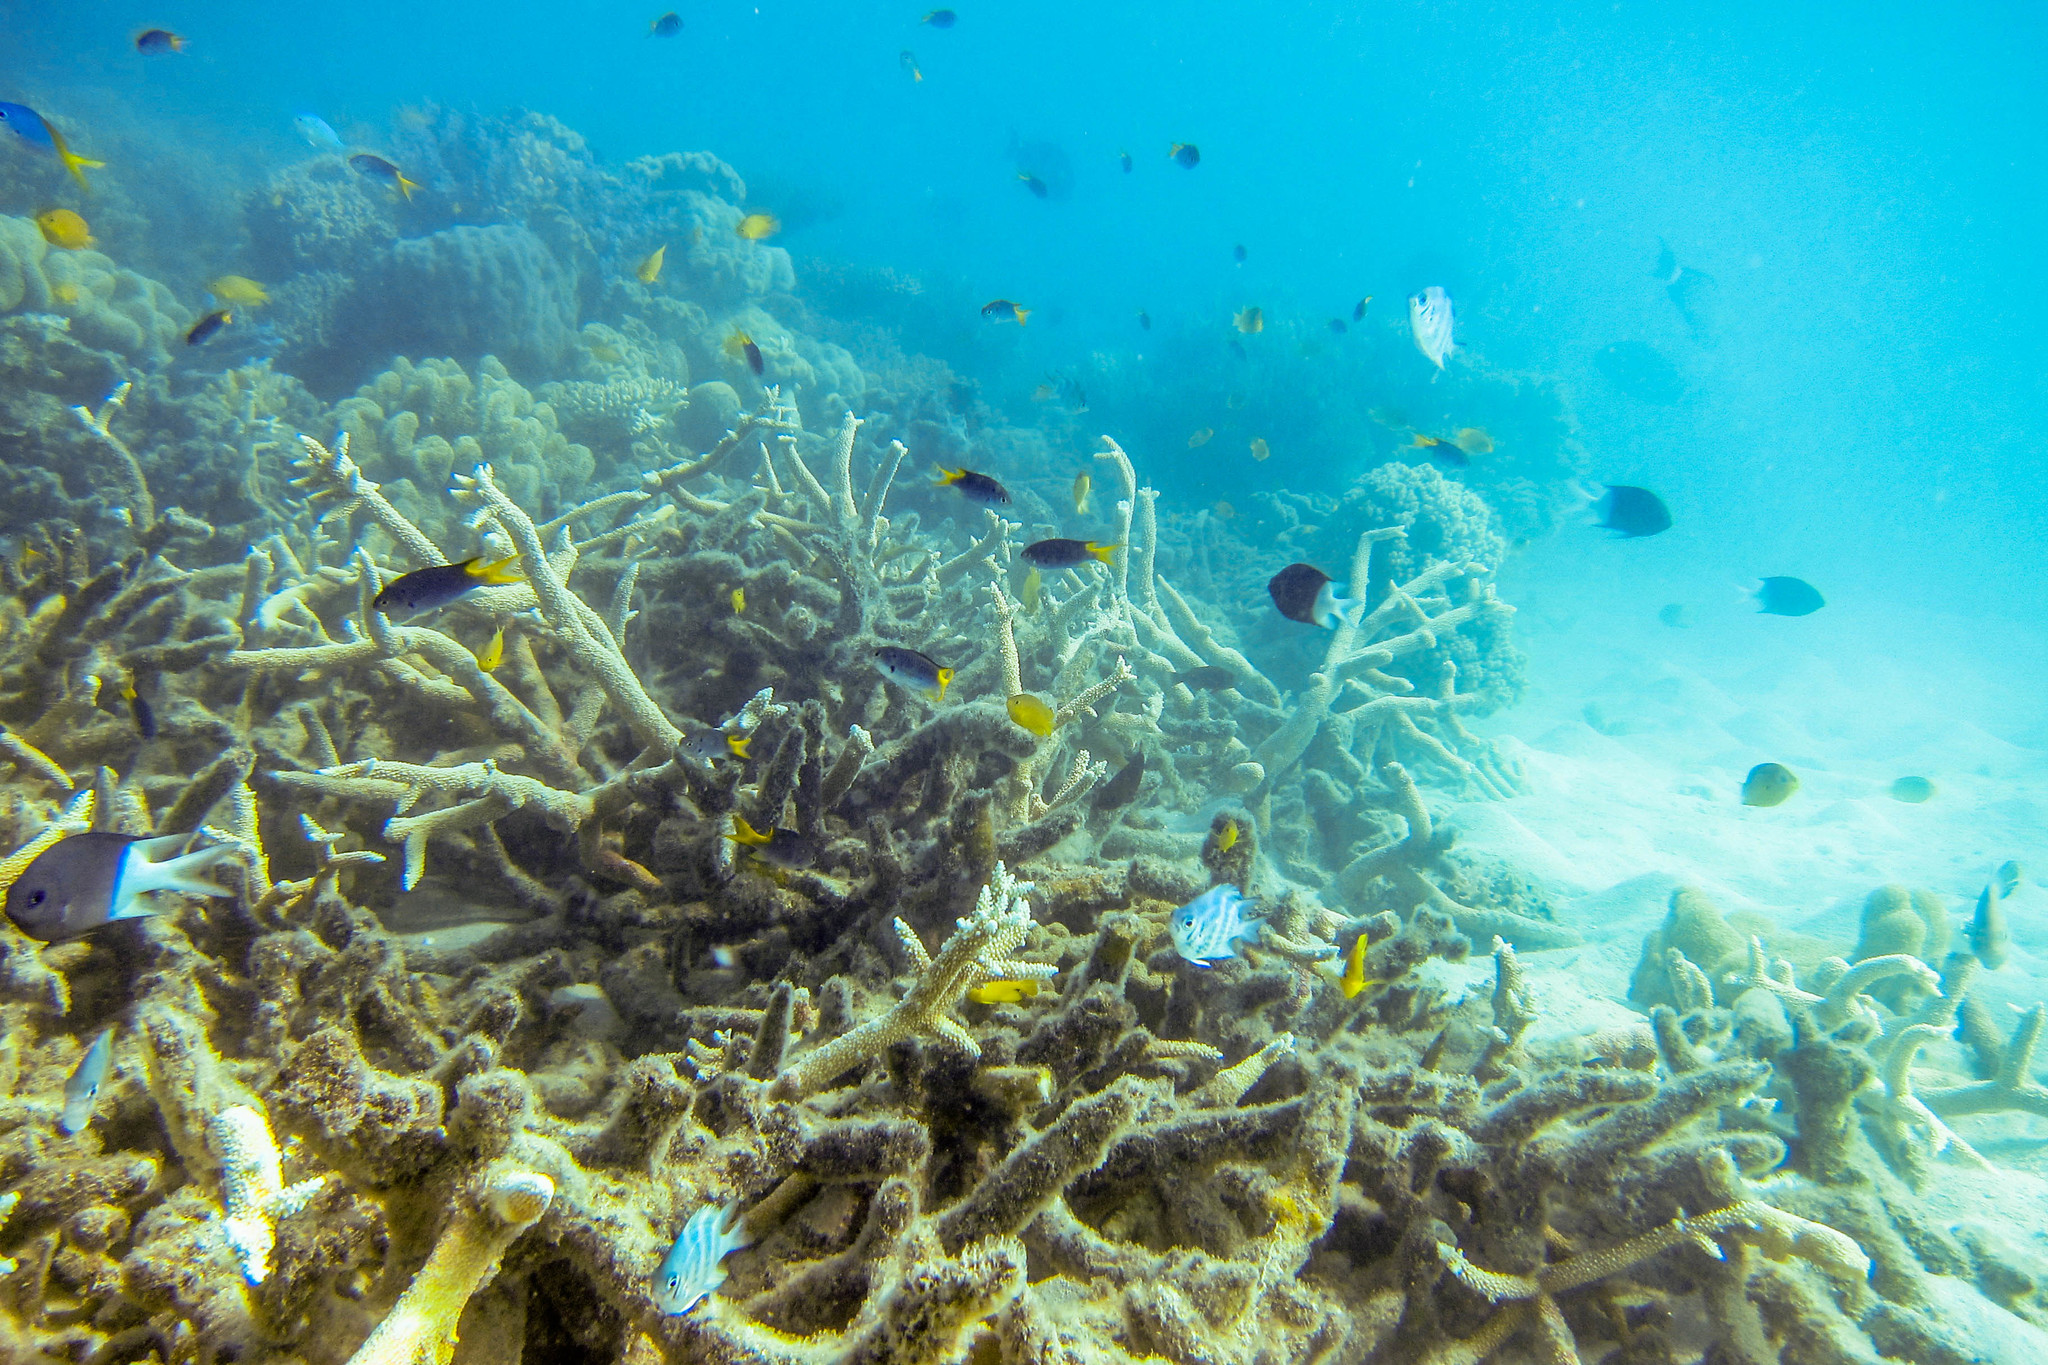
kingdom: Animalia
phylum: Chordata
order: Perciformes
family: Pomacentridae
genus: Neopomacentrus
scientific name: Neopomacentrus azysron
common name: Yellow-tail damsel
